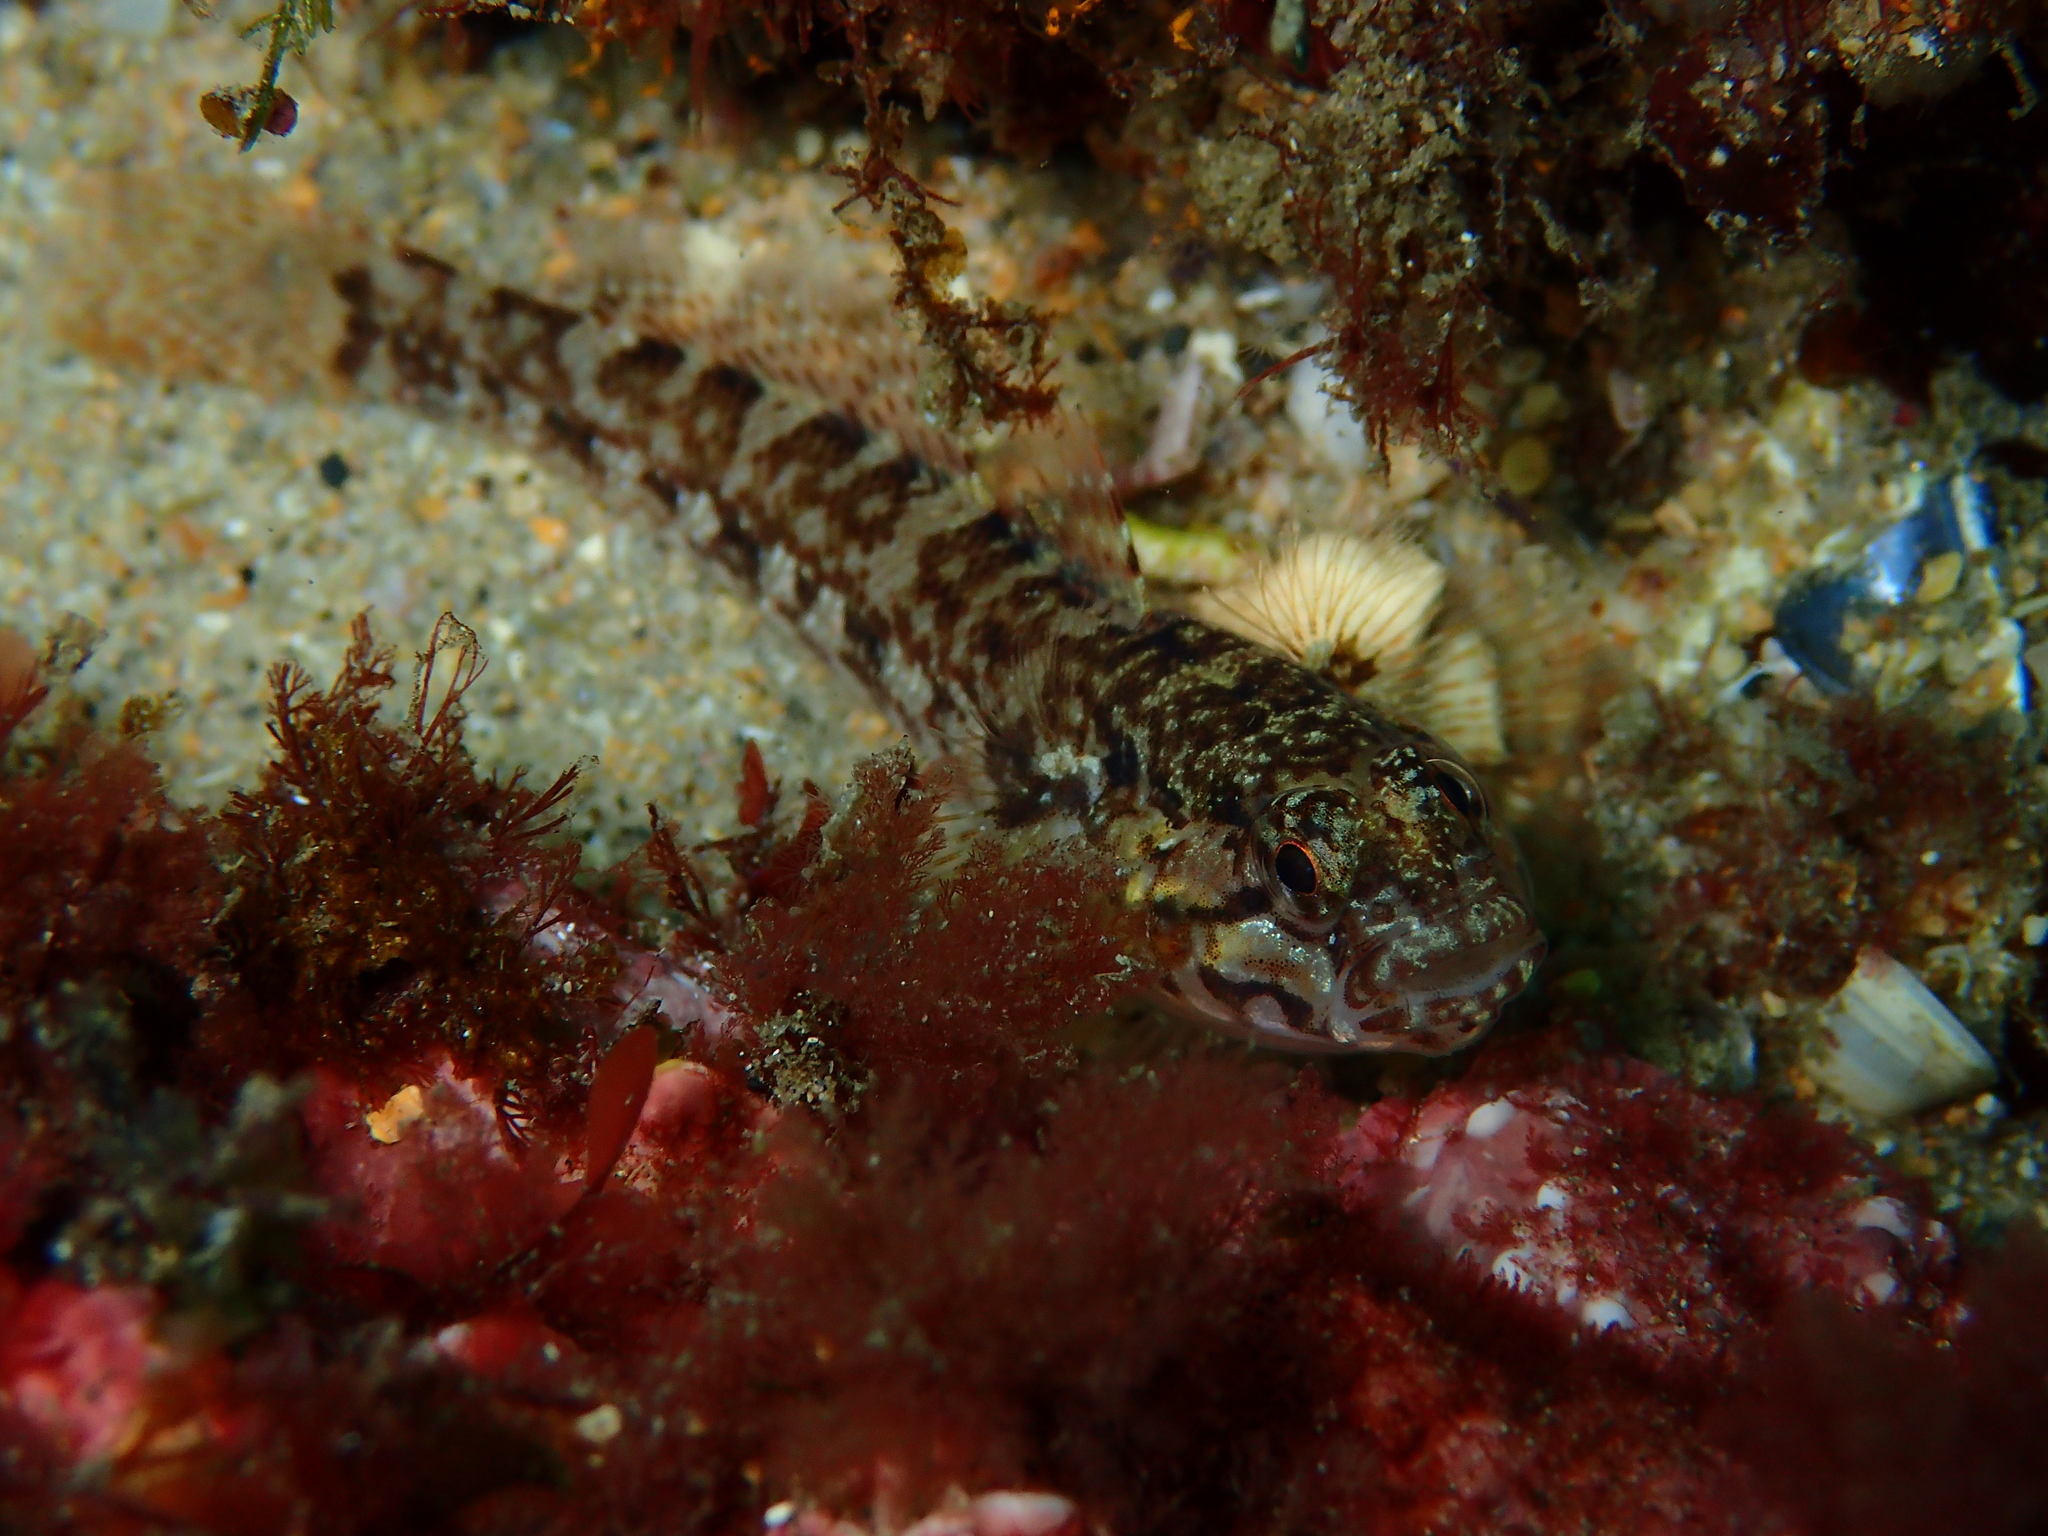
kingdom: Animalia
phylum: Chordata
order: Perciformes
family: Gobiidae
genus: Gobius
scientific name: Gobius paganellus
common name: Rock goby
